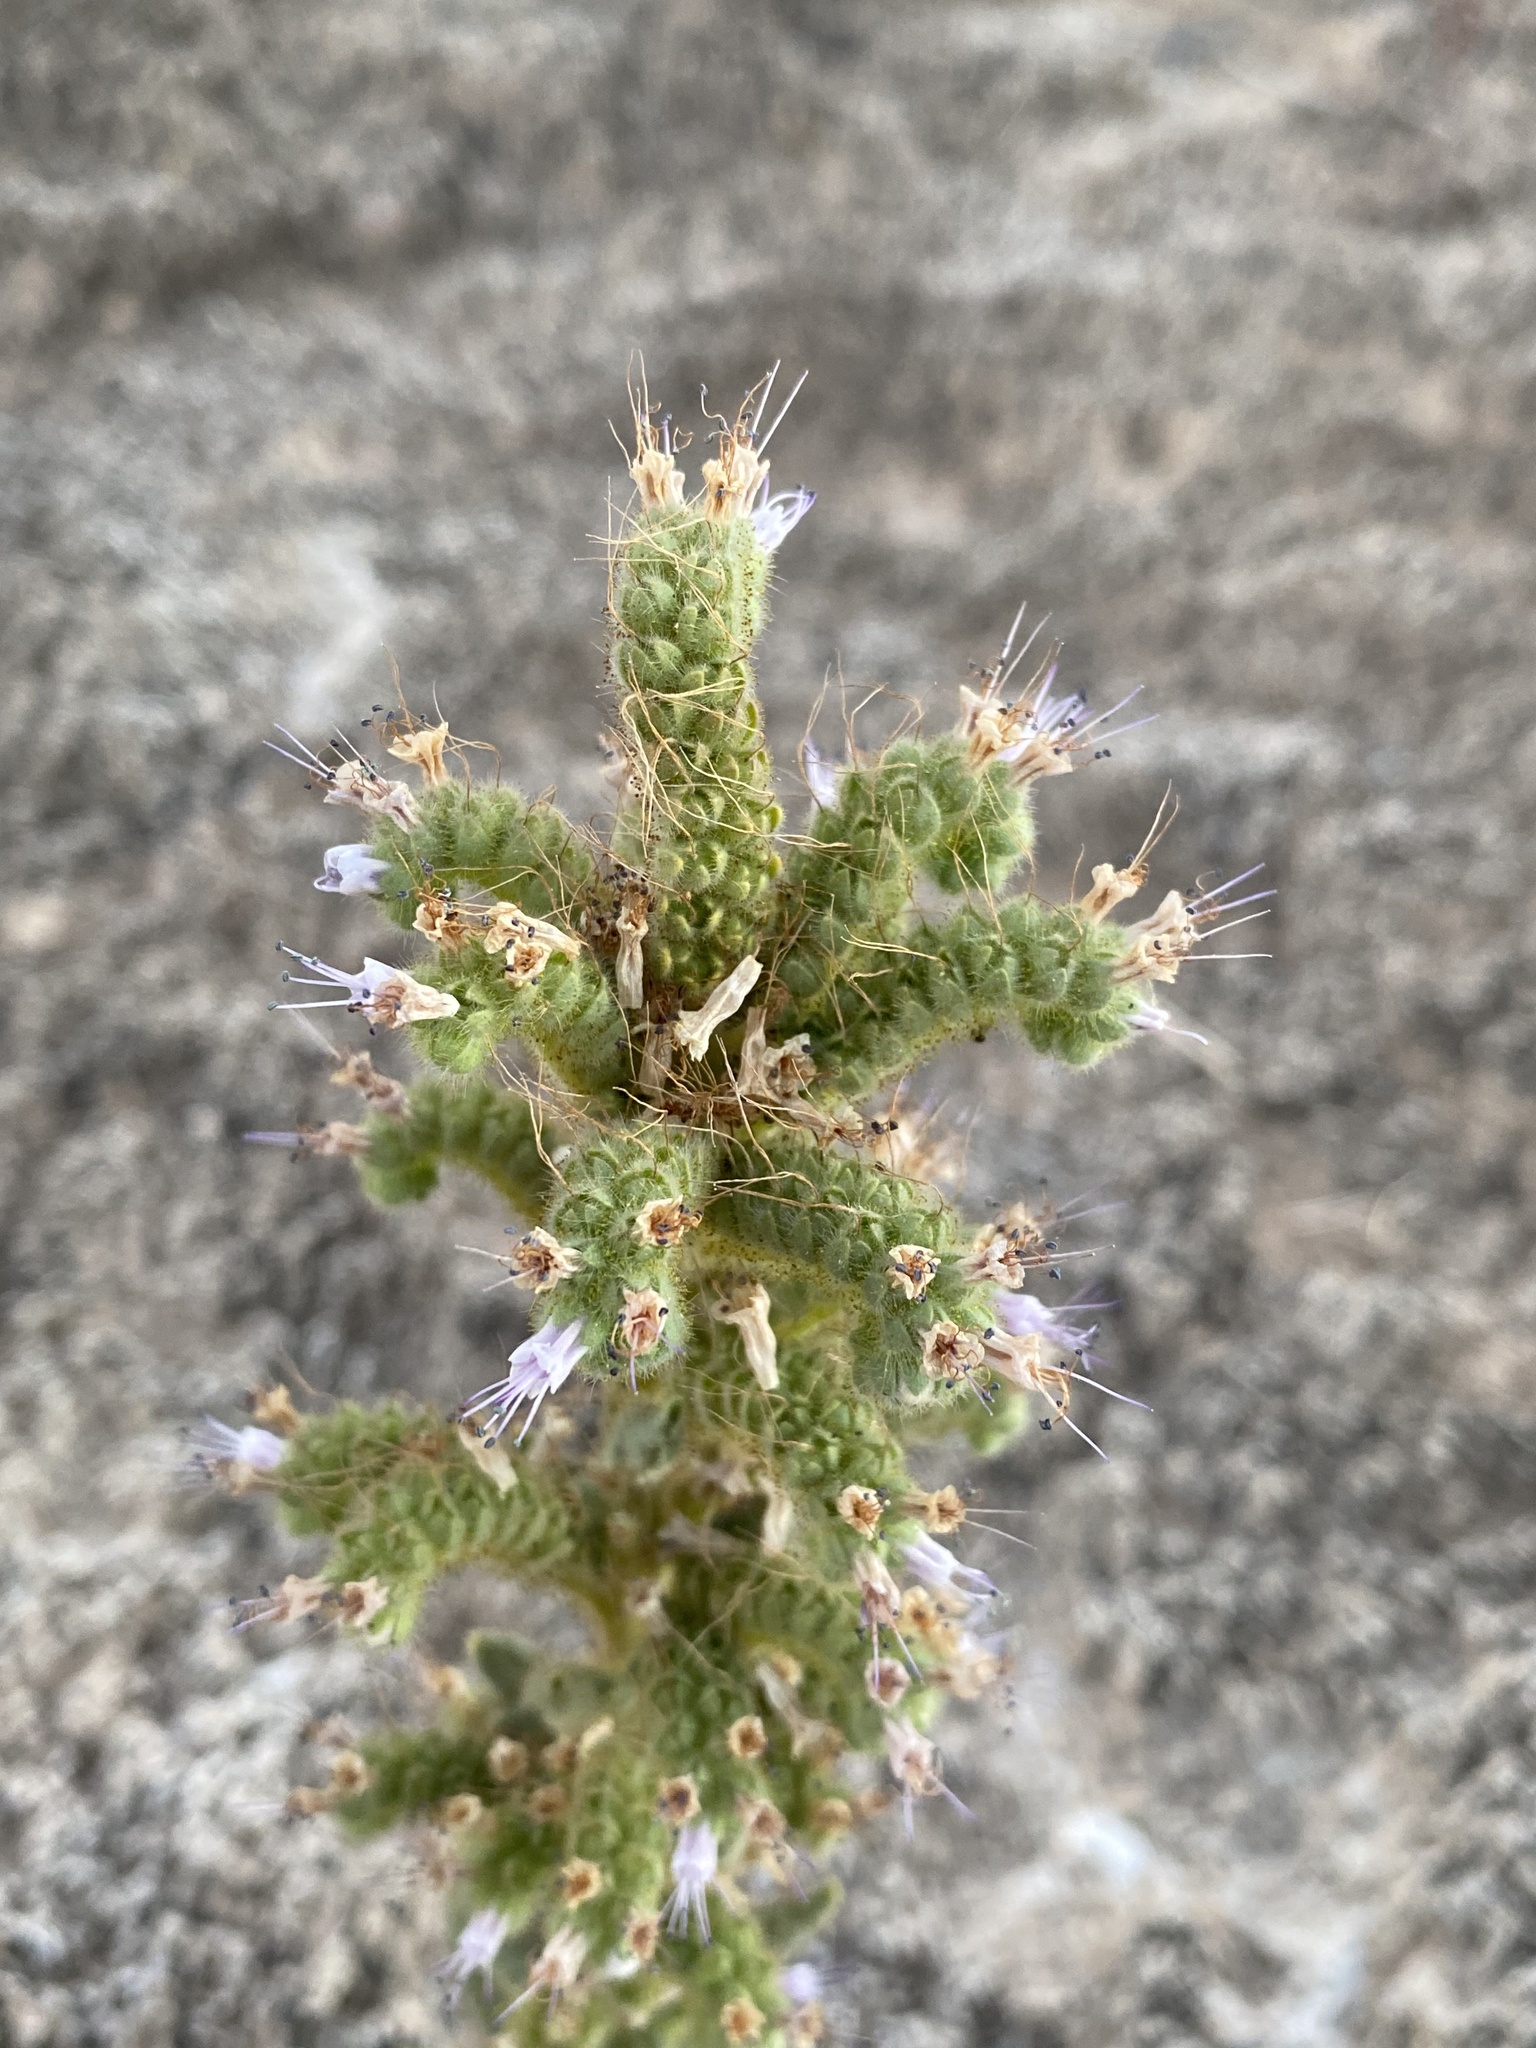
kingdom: Plantae
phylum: Tracheophyta
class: Magnoliopsida
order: Boraginales
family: Hydrophyllaceae
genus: Phacelia
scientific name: Phacelia palmeri
